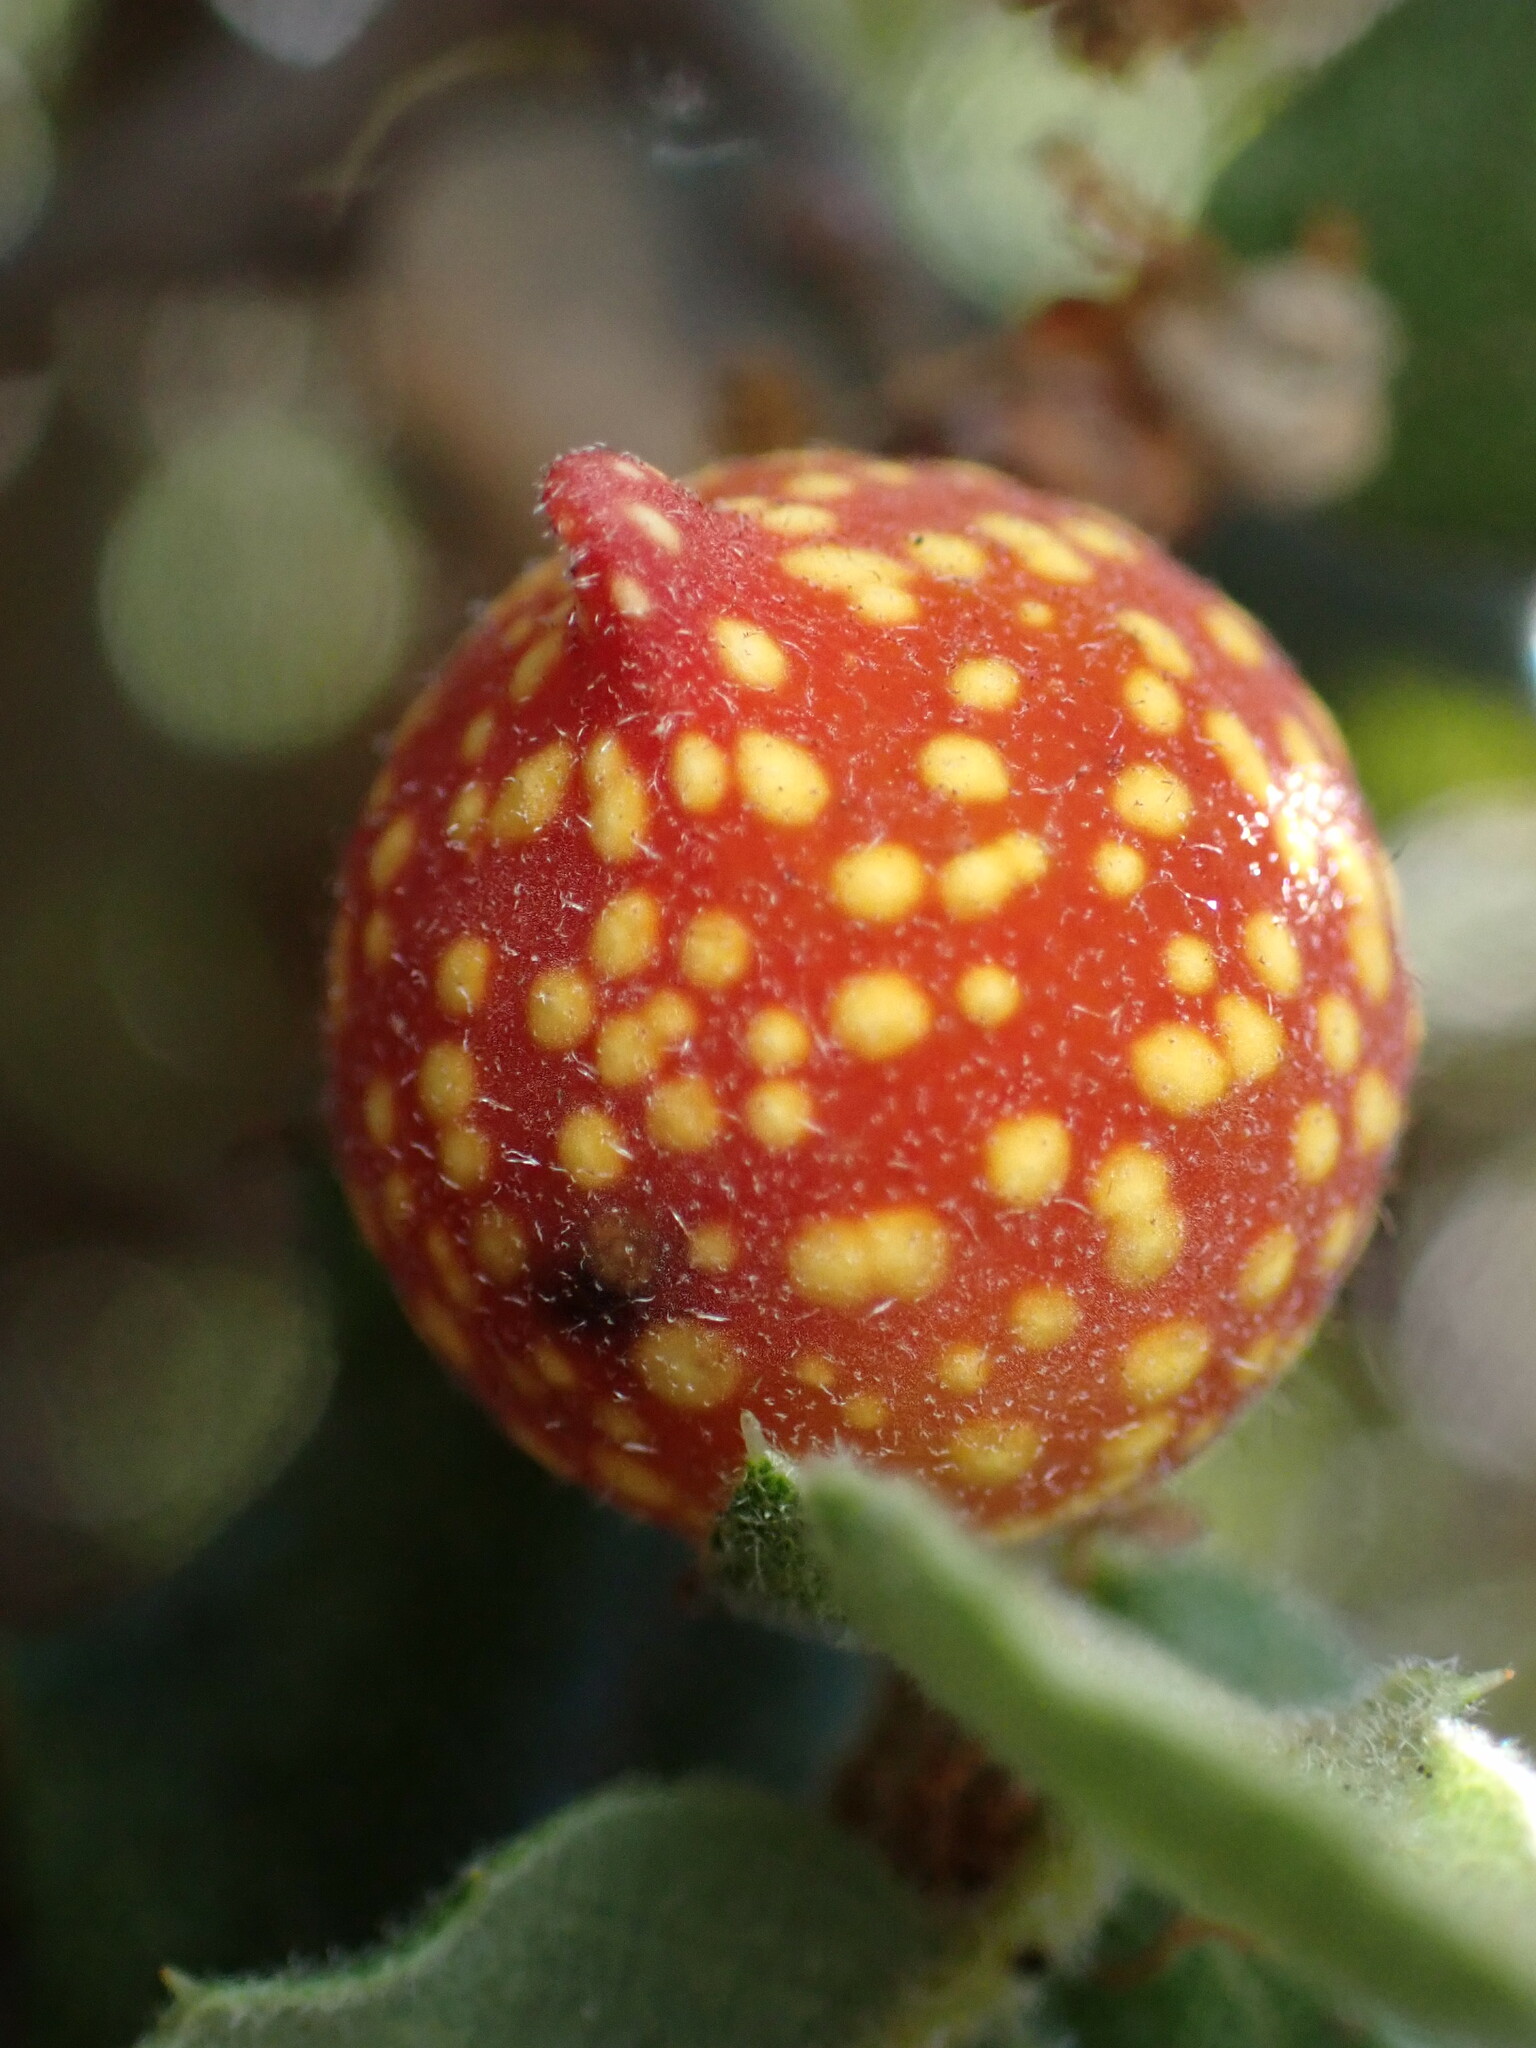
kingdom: Animalia
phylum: Arthropoda
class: Insecta
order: Hymenoptera
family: Cynipidae
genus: Burnettweldia
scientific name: Burnettweldia
